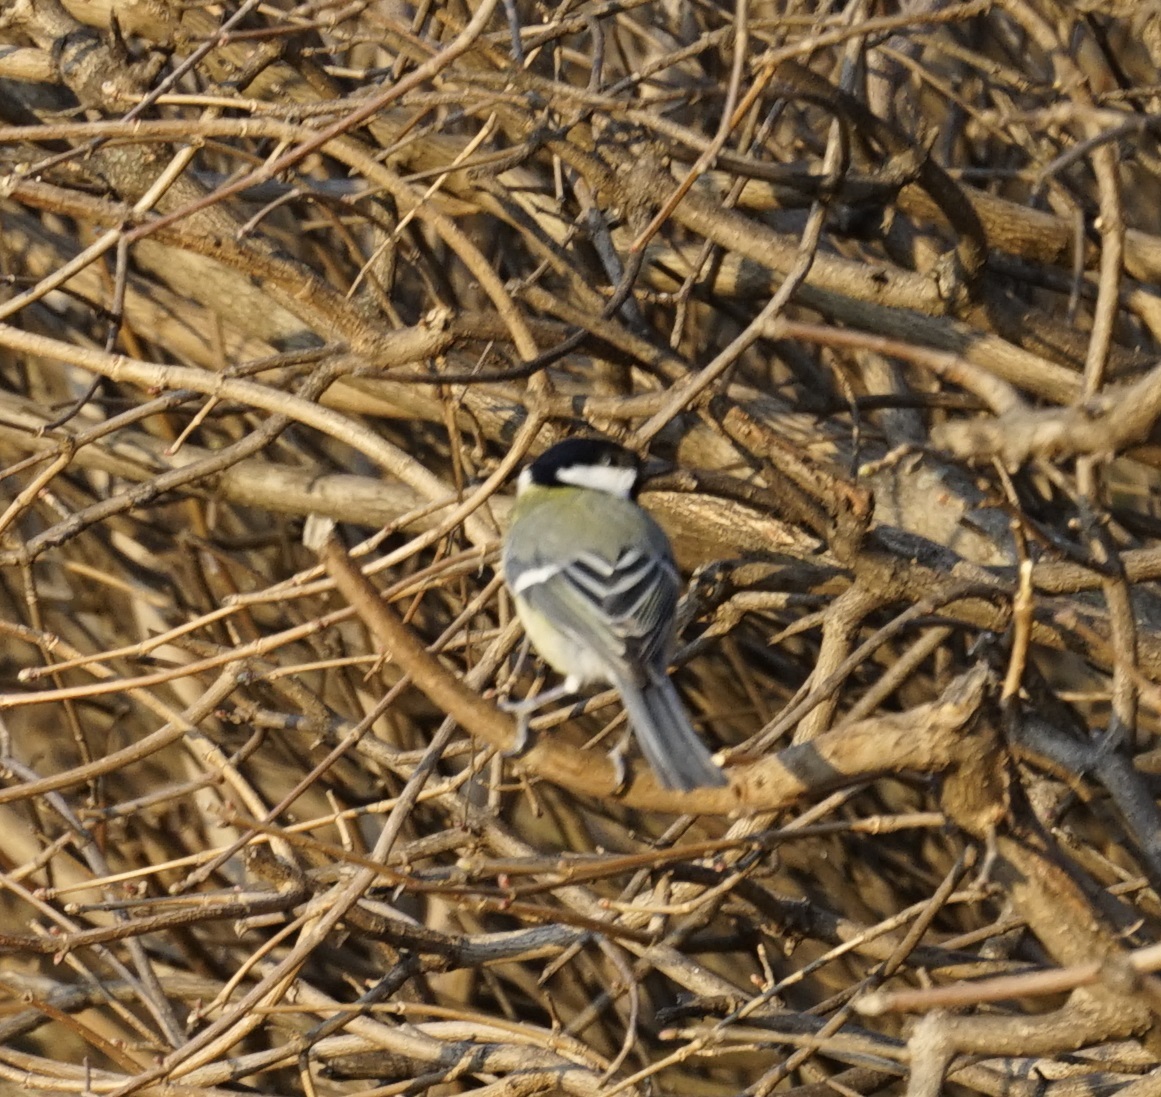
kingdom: Animalia
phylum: Chordata
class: Aves
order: Passeriformes
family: Paridae
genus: Parus
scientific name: Parus major
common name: Great tit
